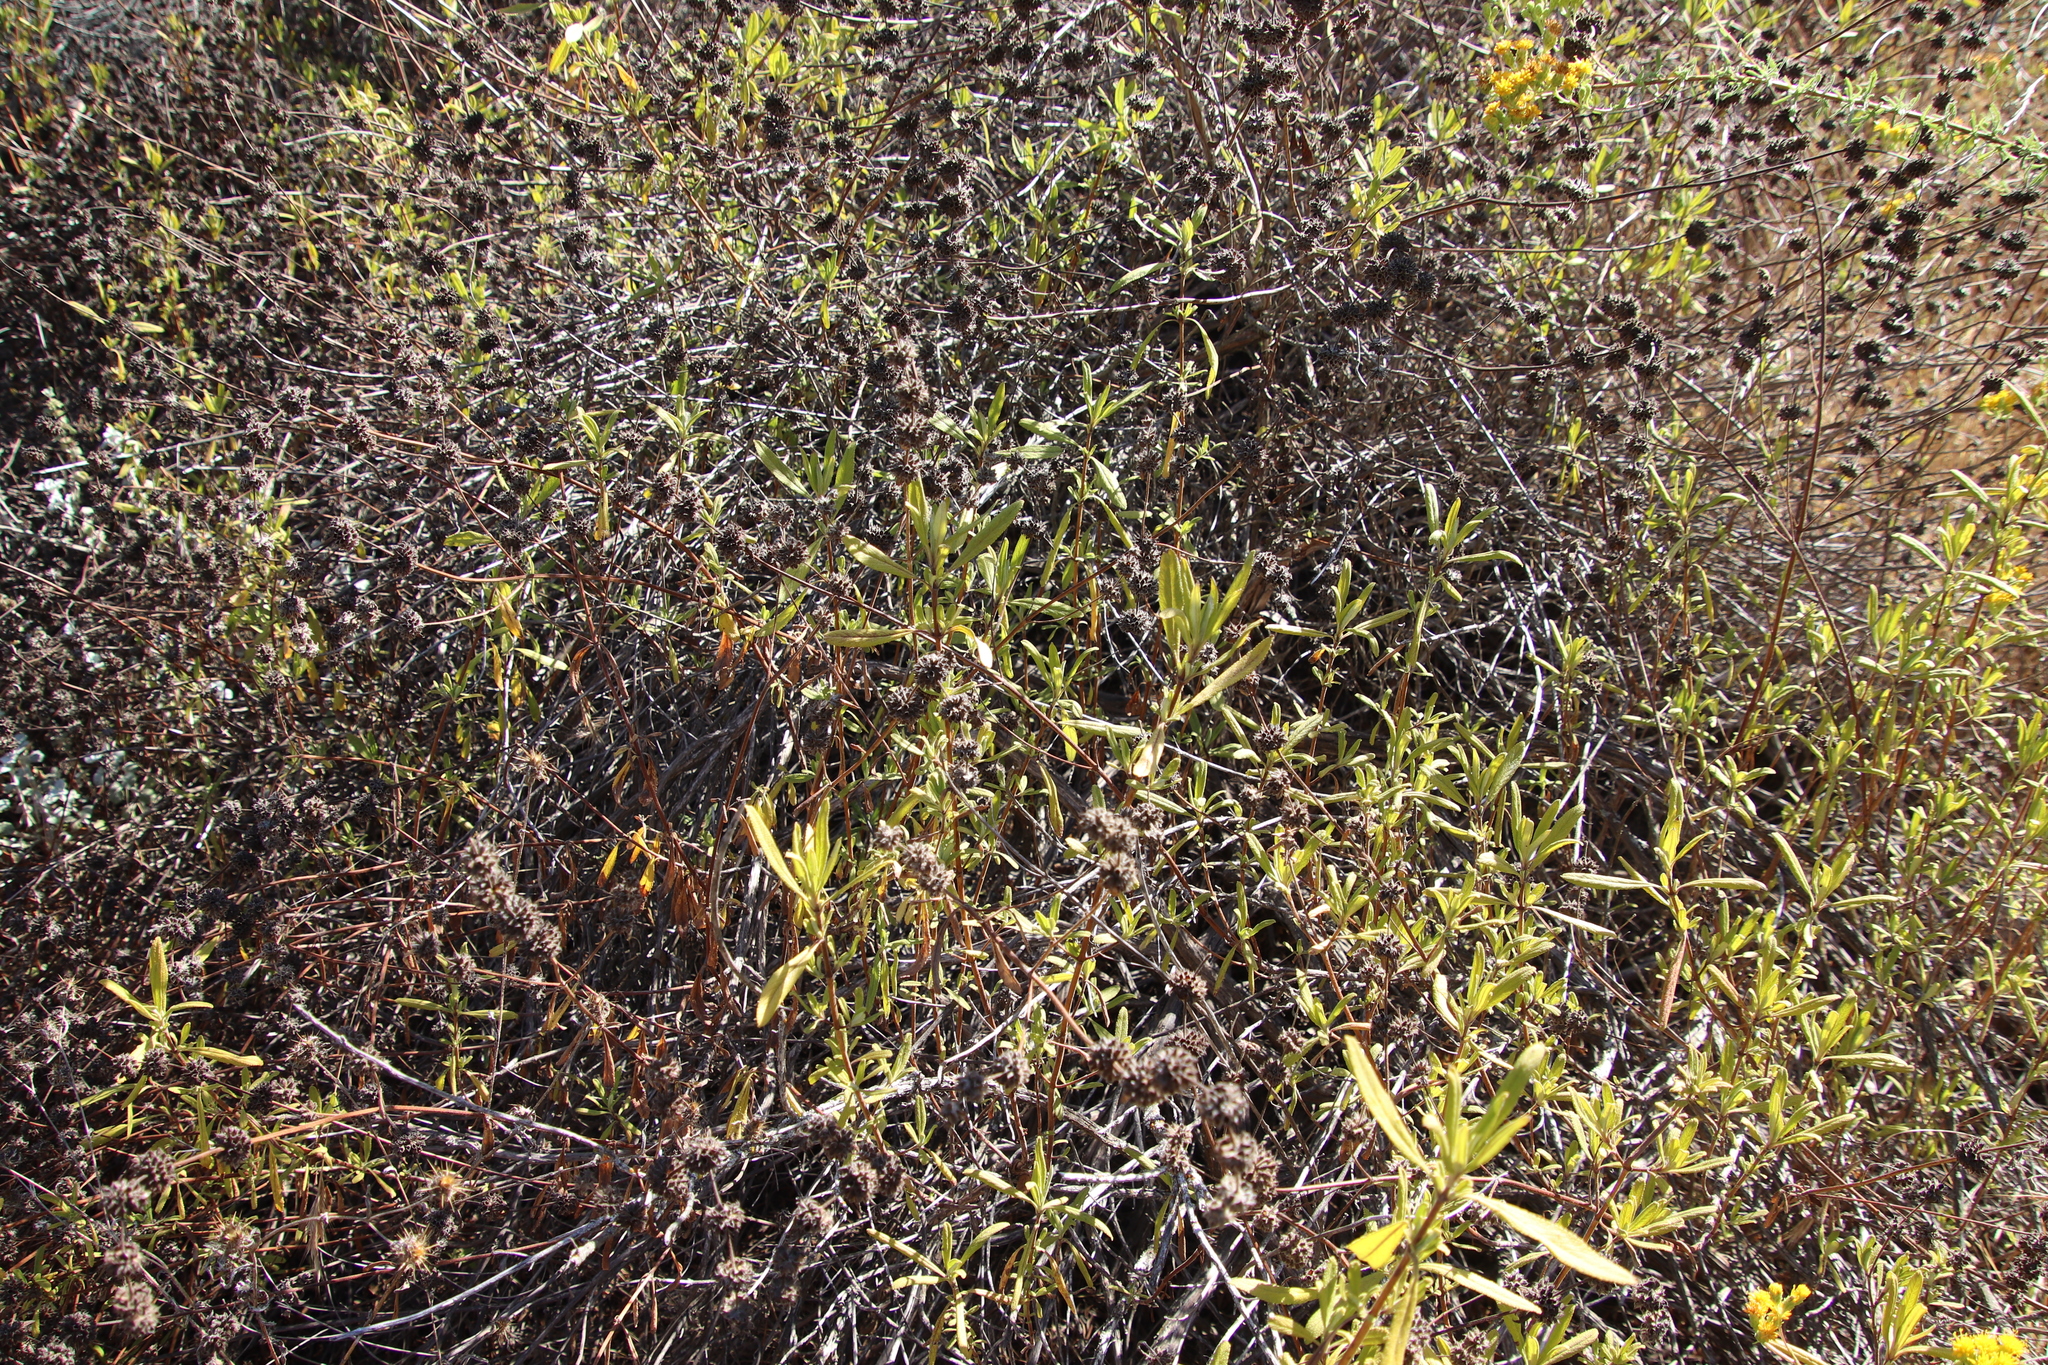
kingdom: Plantae
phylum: Tracheophyta
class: Magnoliopsida
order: Lamiales
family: Lamiaceae
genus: Salvia
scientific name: Salvia mellifera
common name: Black sage
